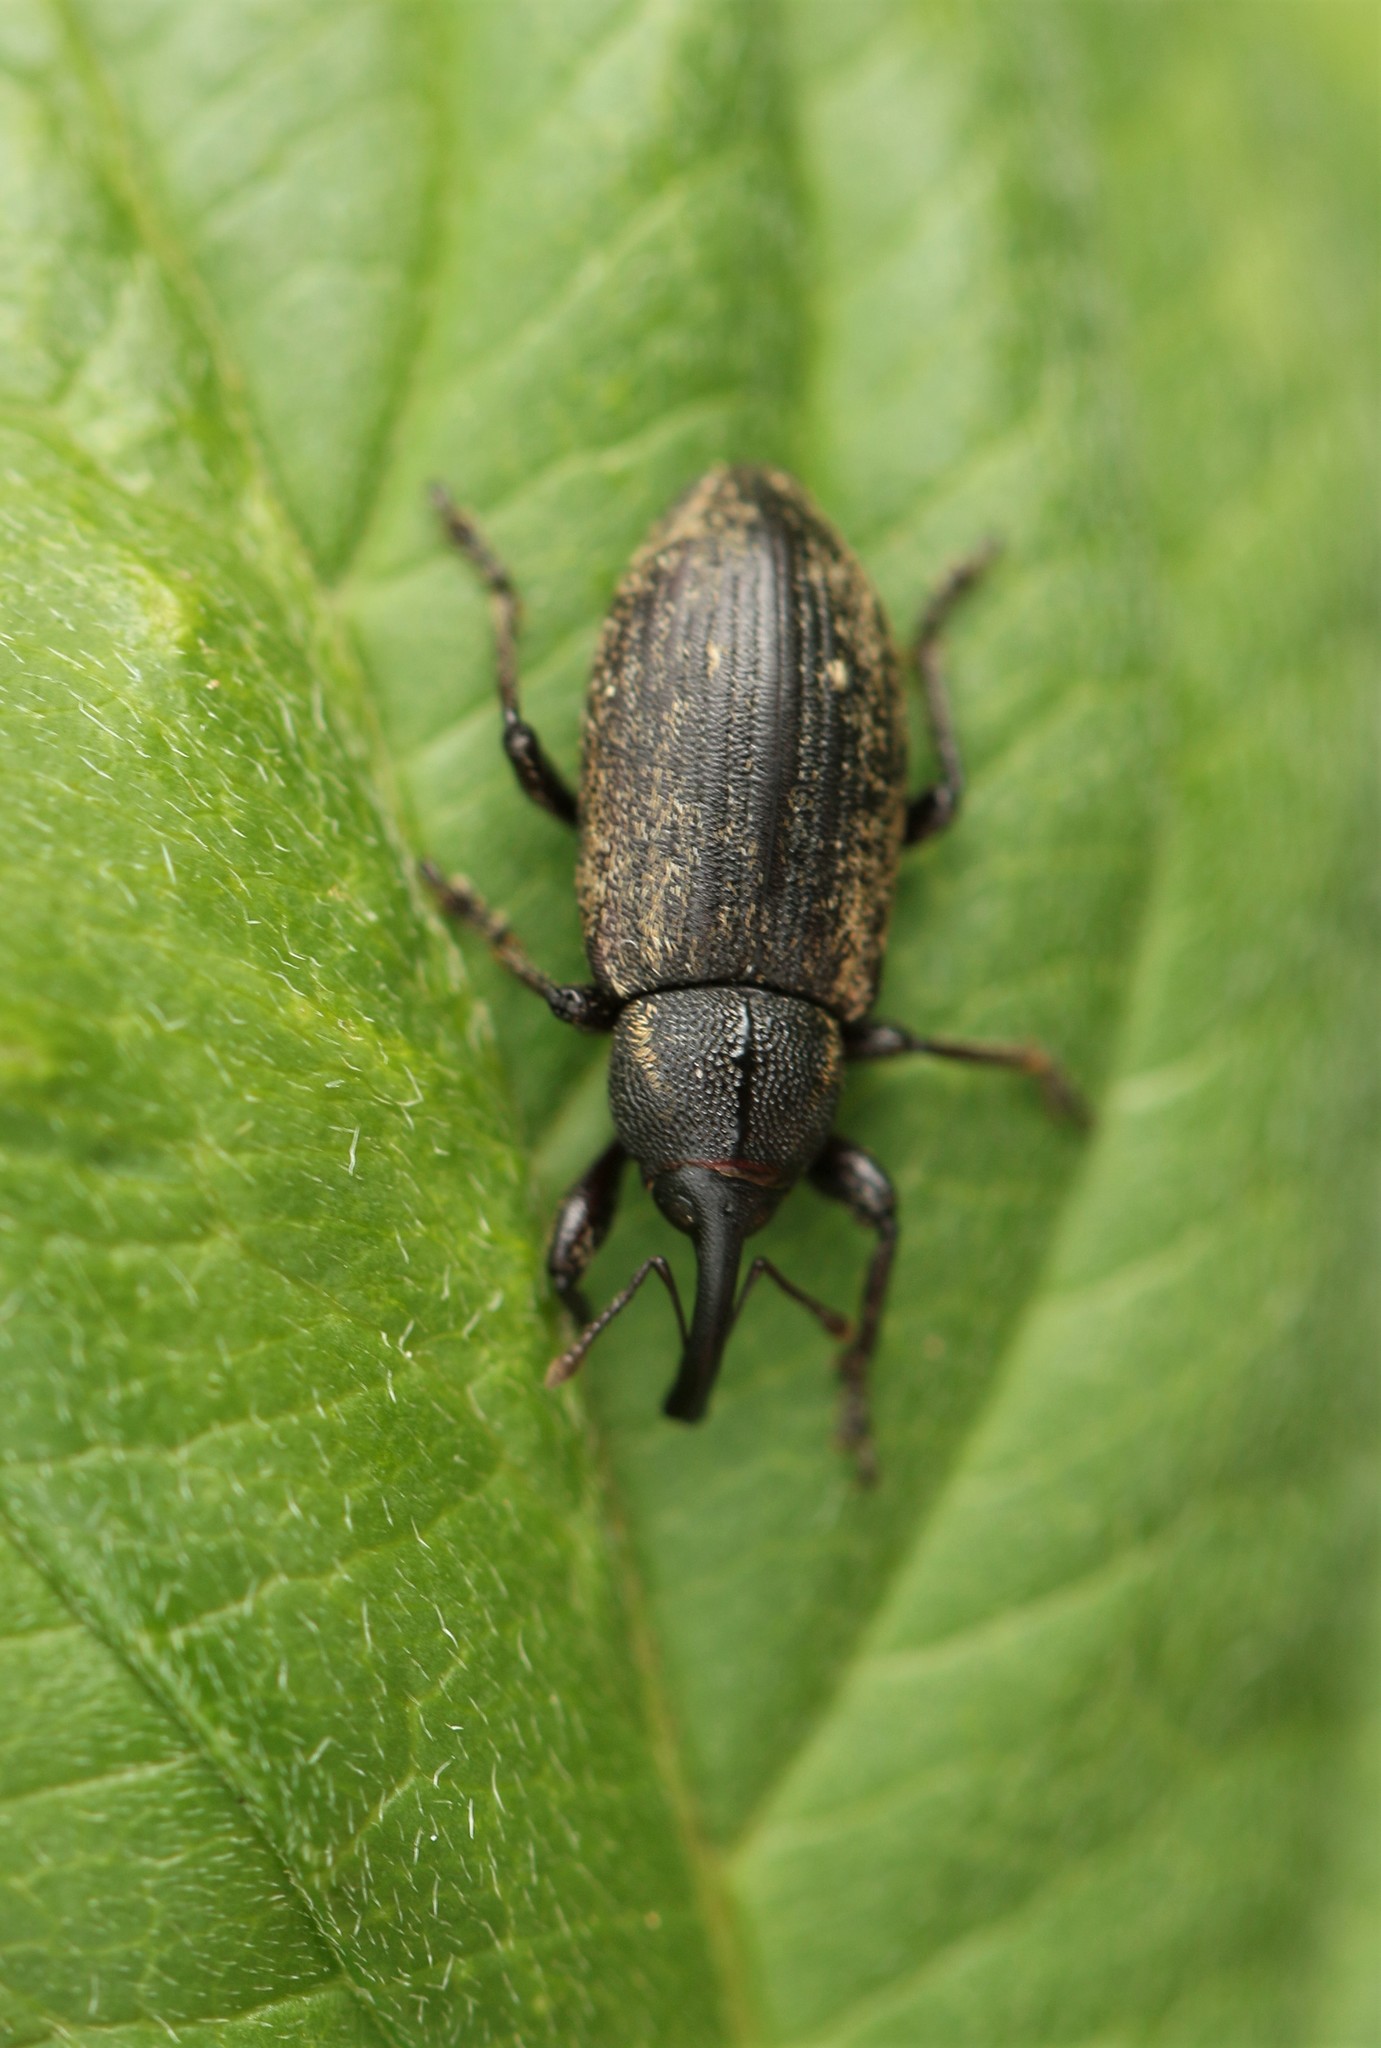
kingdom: Animalia
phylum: Arthropoda
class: Insecta
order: Coleoptera
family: Brachyceridae
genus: Tournotaris
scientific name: Tournotaris bimaculata
